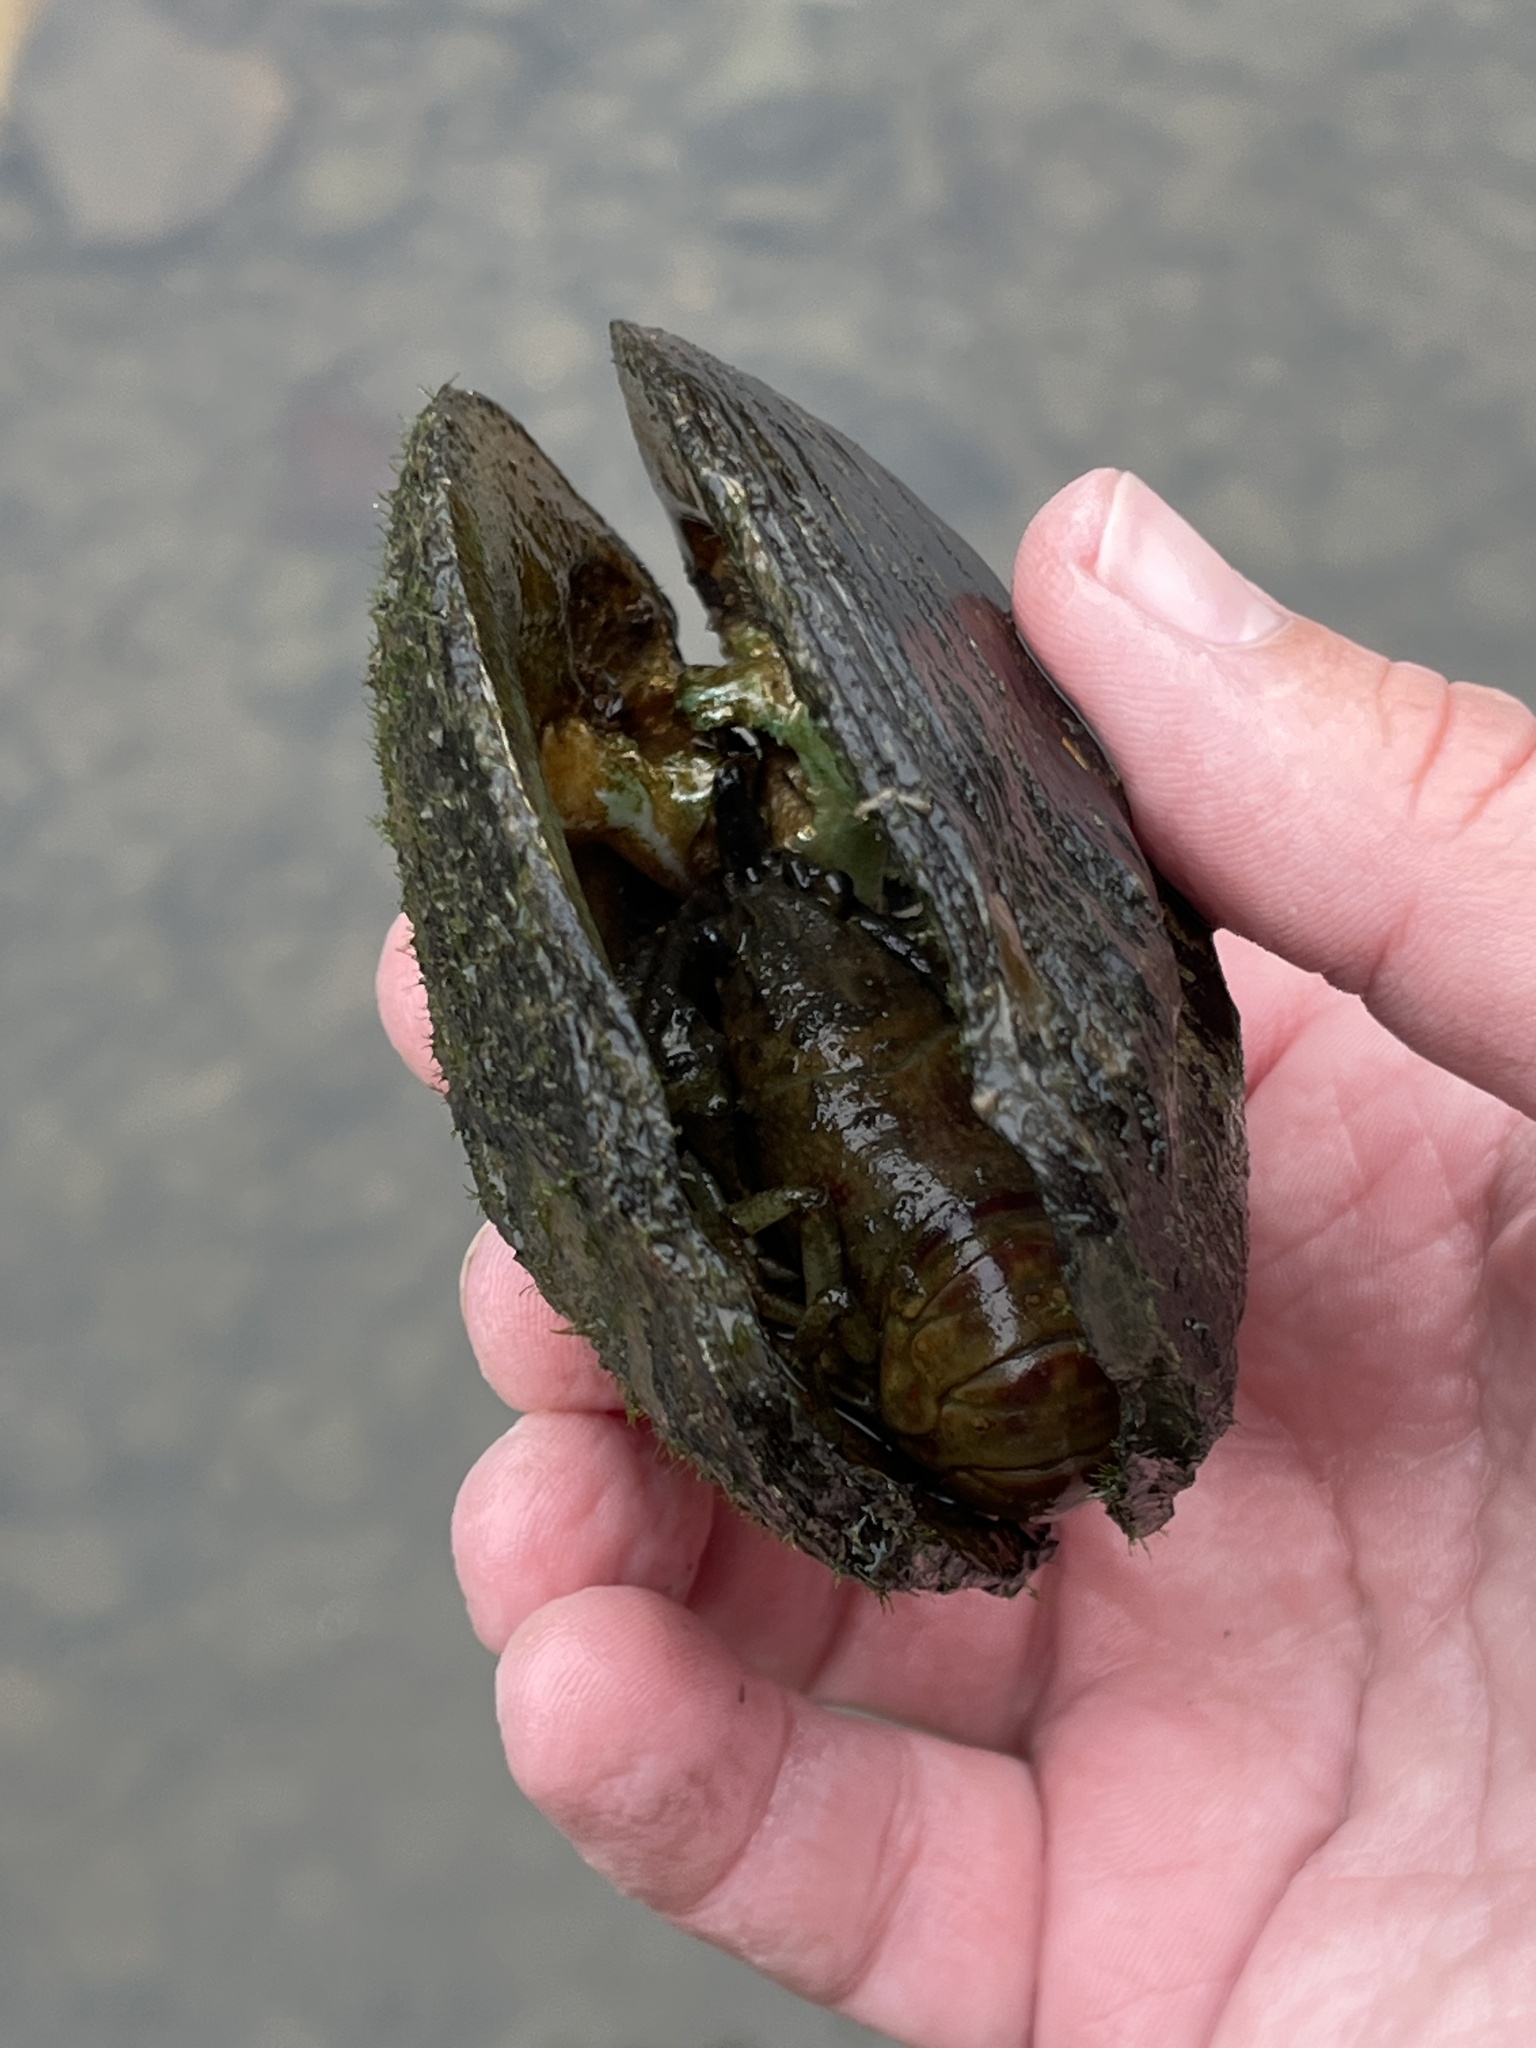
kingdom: Animalia
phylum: Arthropoda
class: Malacostraca
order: Decapoda
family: Cambaridae
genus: Faxonius
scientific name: Faxonius rusticus
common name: Rusty crayfish
